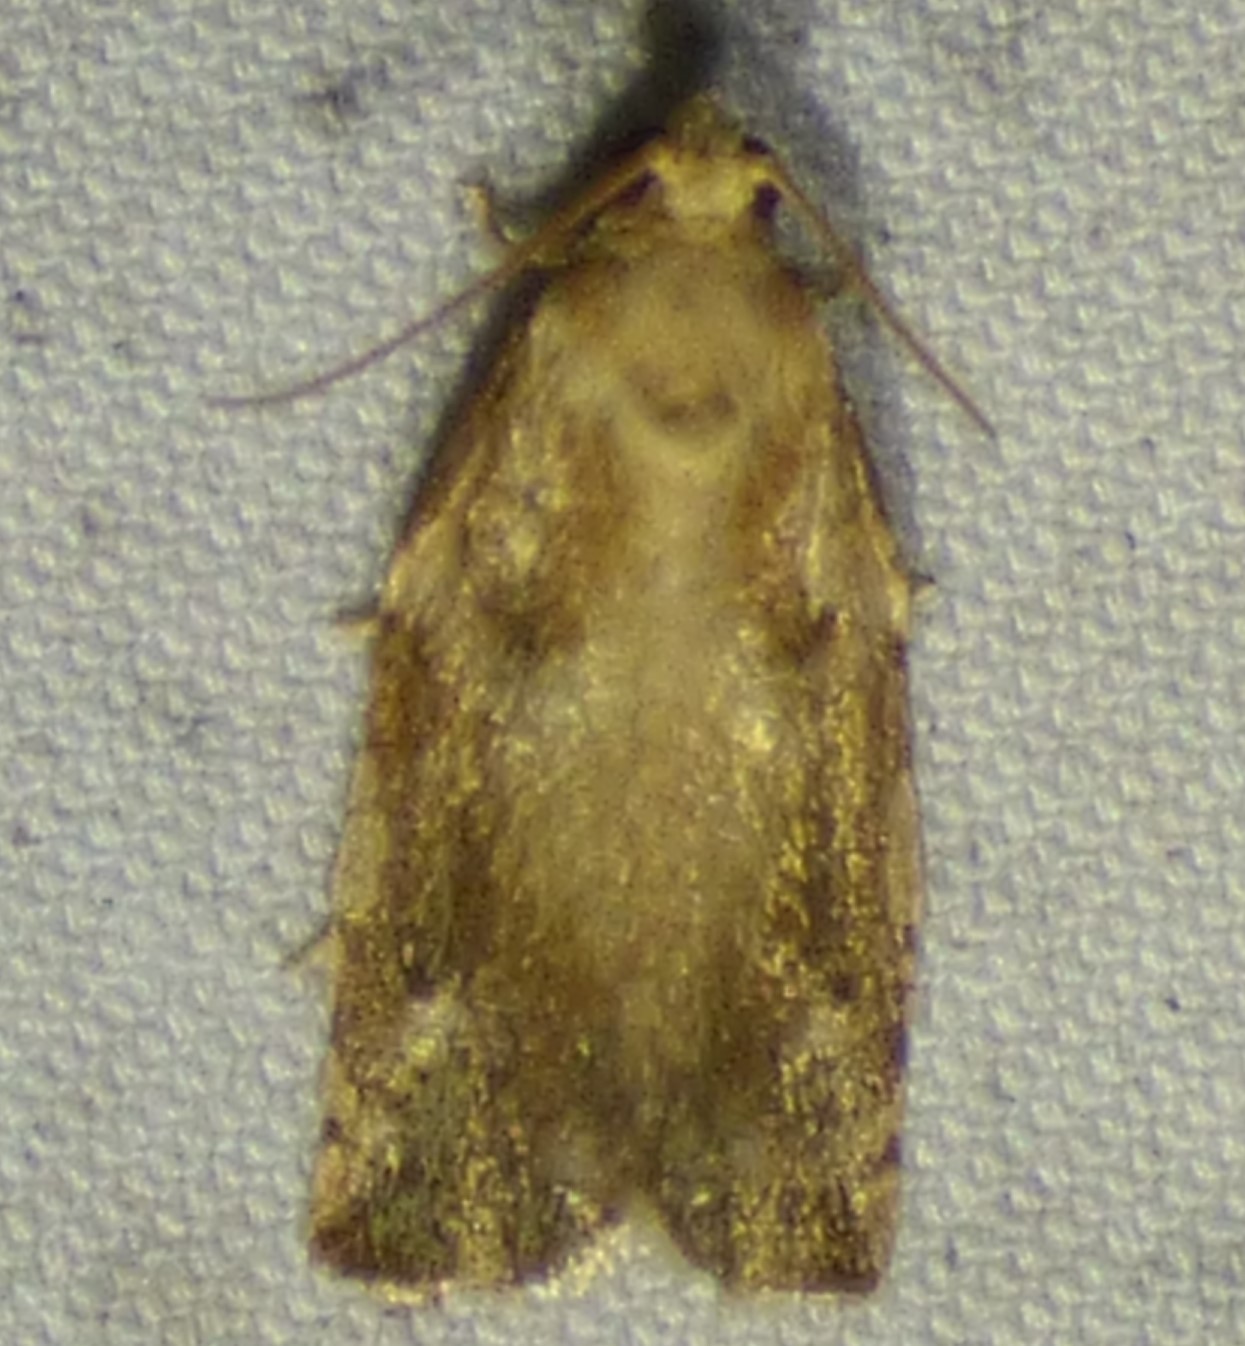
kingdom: Animalia
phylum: Arthropoda
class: Insecta
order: Lepidoptera
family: Tortricidae
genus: Archips
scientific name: Archips semiferanus
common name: Oak leafroller
